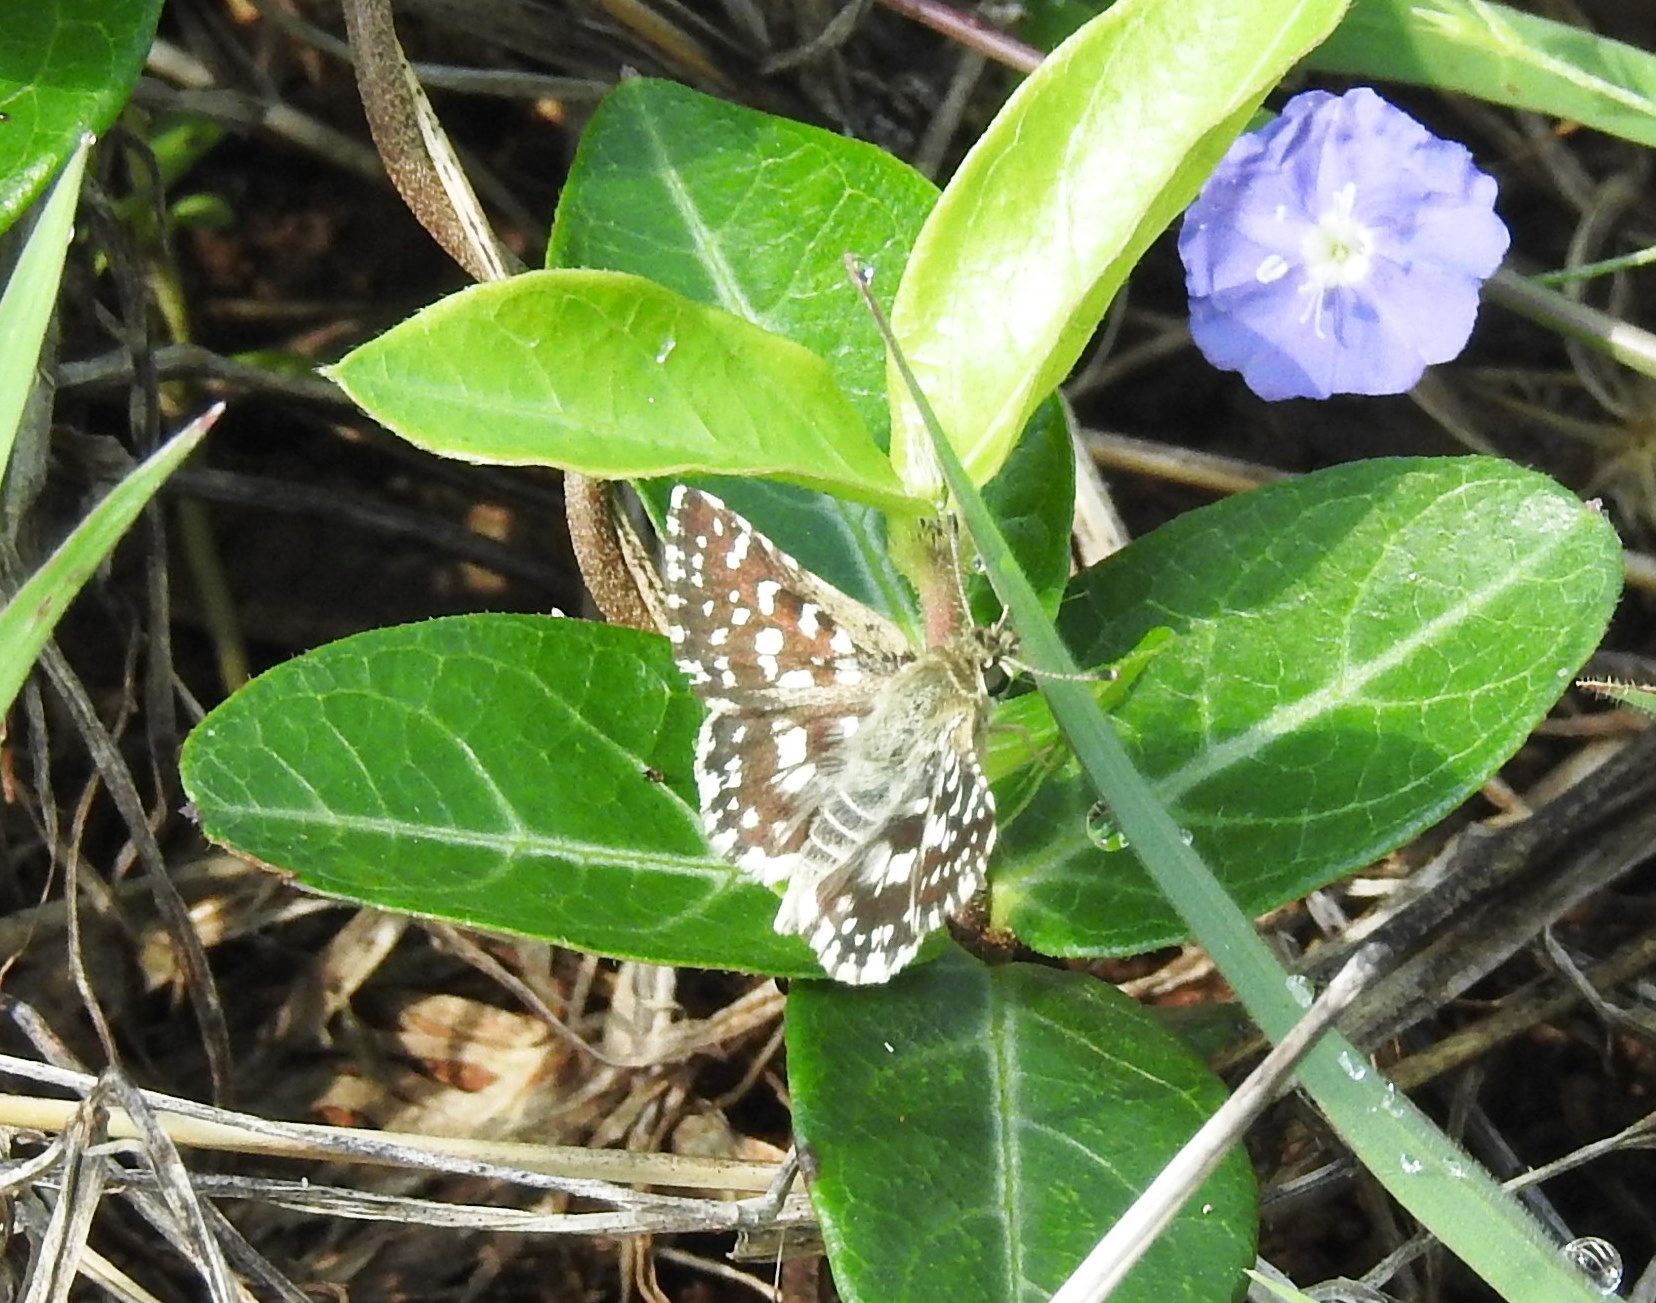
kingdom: Animalia
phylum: Arthropoda
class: Insecta
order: Lepidoptera
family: Hesperiidae
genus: Spialia
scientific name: Spialia galba
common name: Indian skipper
